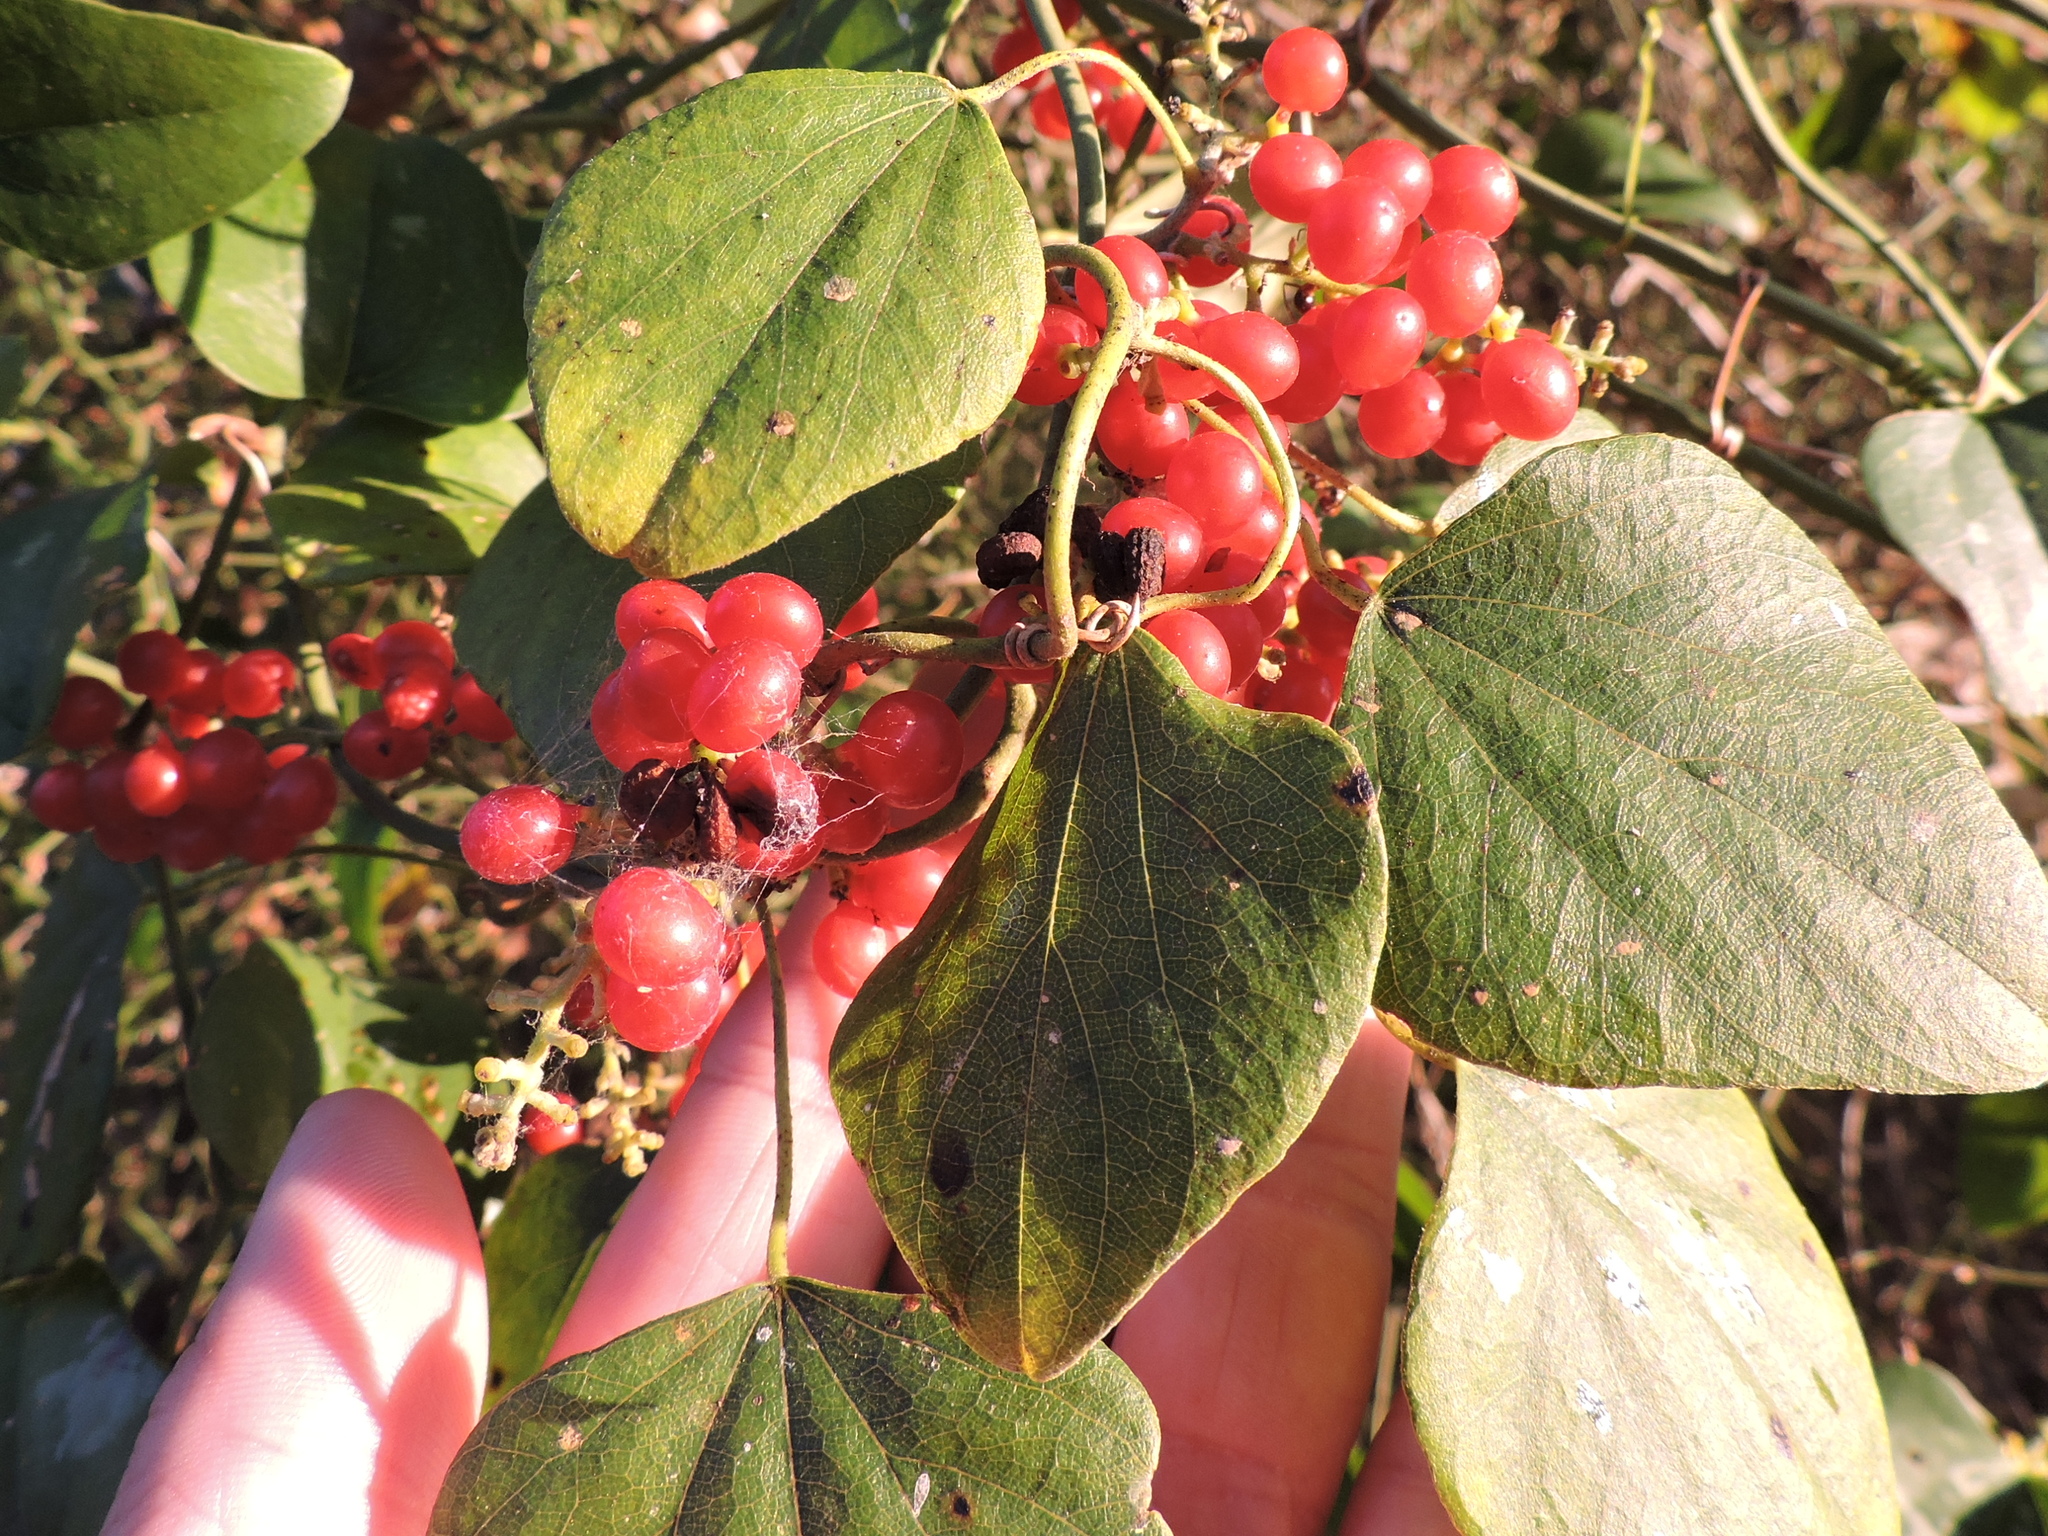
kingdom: Plantae
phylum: Tracheophyta
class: Magnoliopsida
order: Ranunculales
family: Menispermaceae
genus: Cocculus
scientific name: Cocculus carolinus
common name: Carolina moonseed
